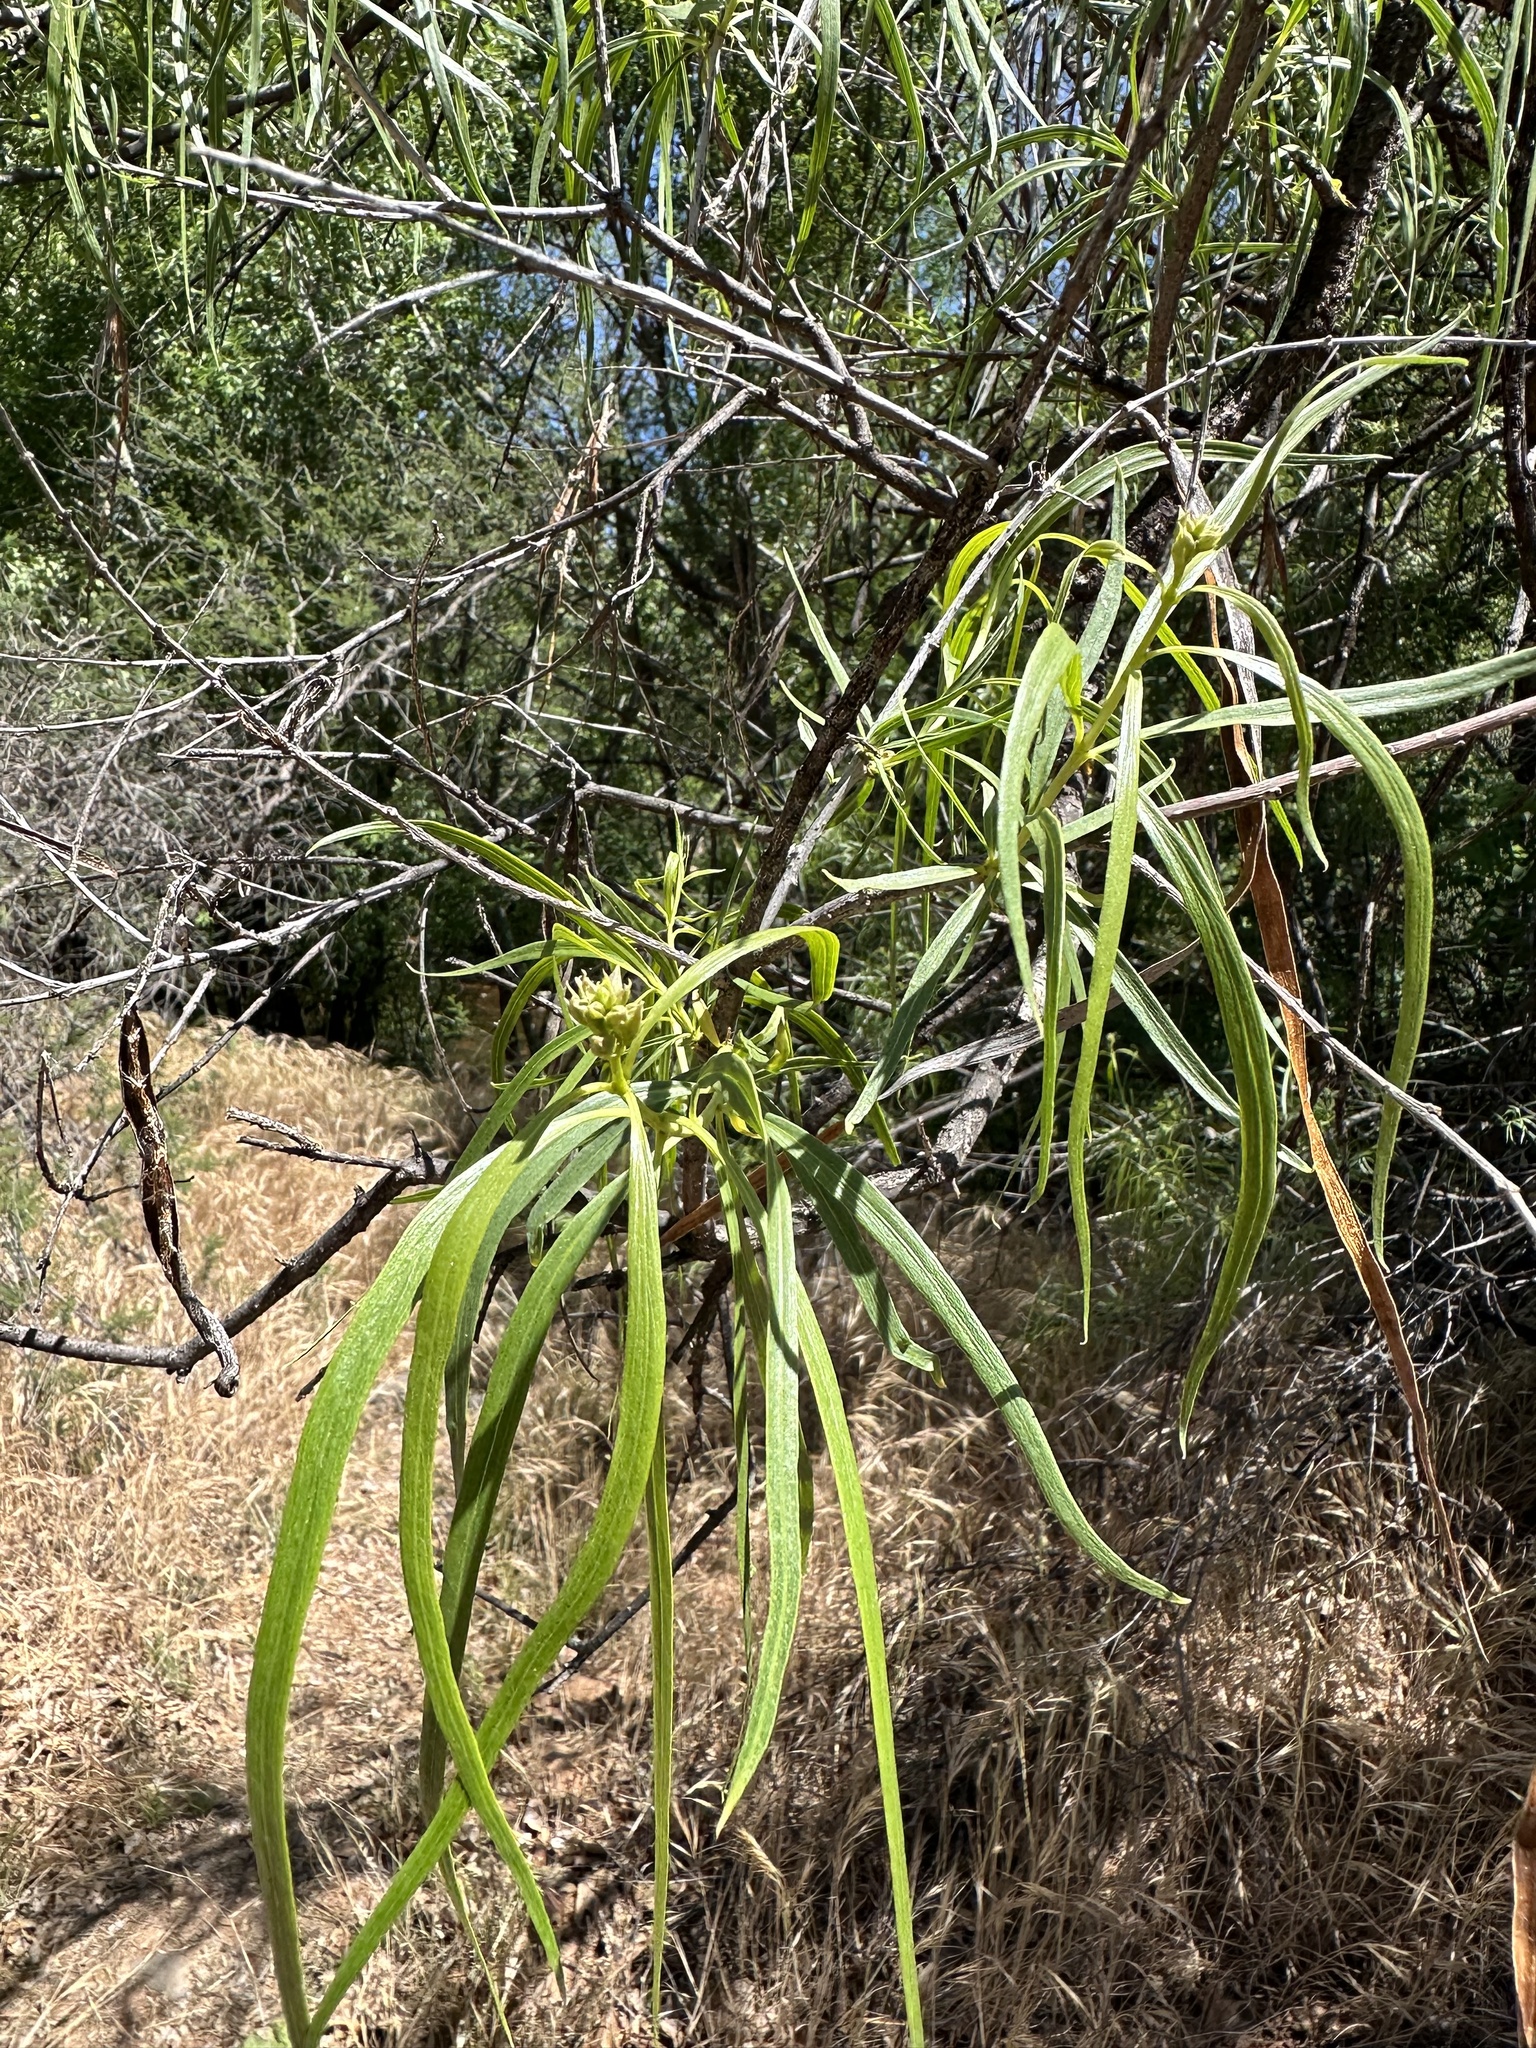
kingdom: Plantae
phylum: Tracheophyta
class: Magnoliopsida
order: Lamiales
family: Bignoniaceae
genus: Chilopsis
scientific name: Chilopsis linearis
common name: Desert-willow
